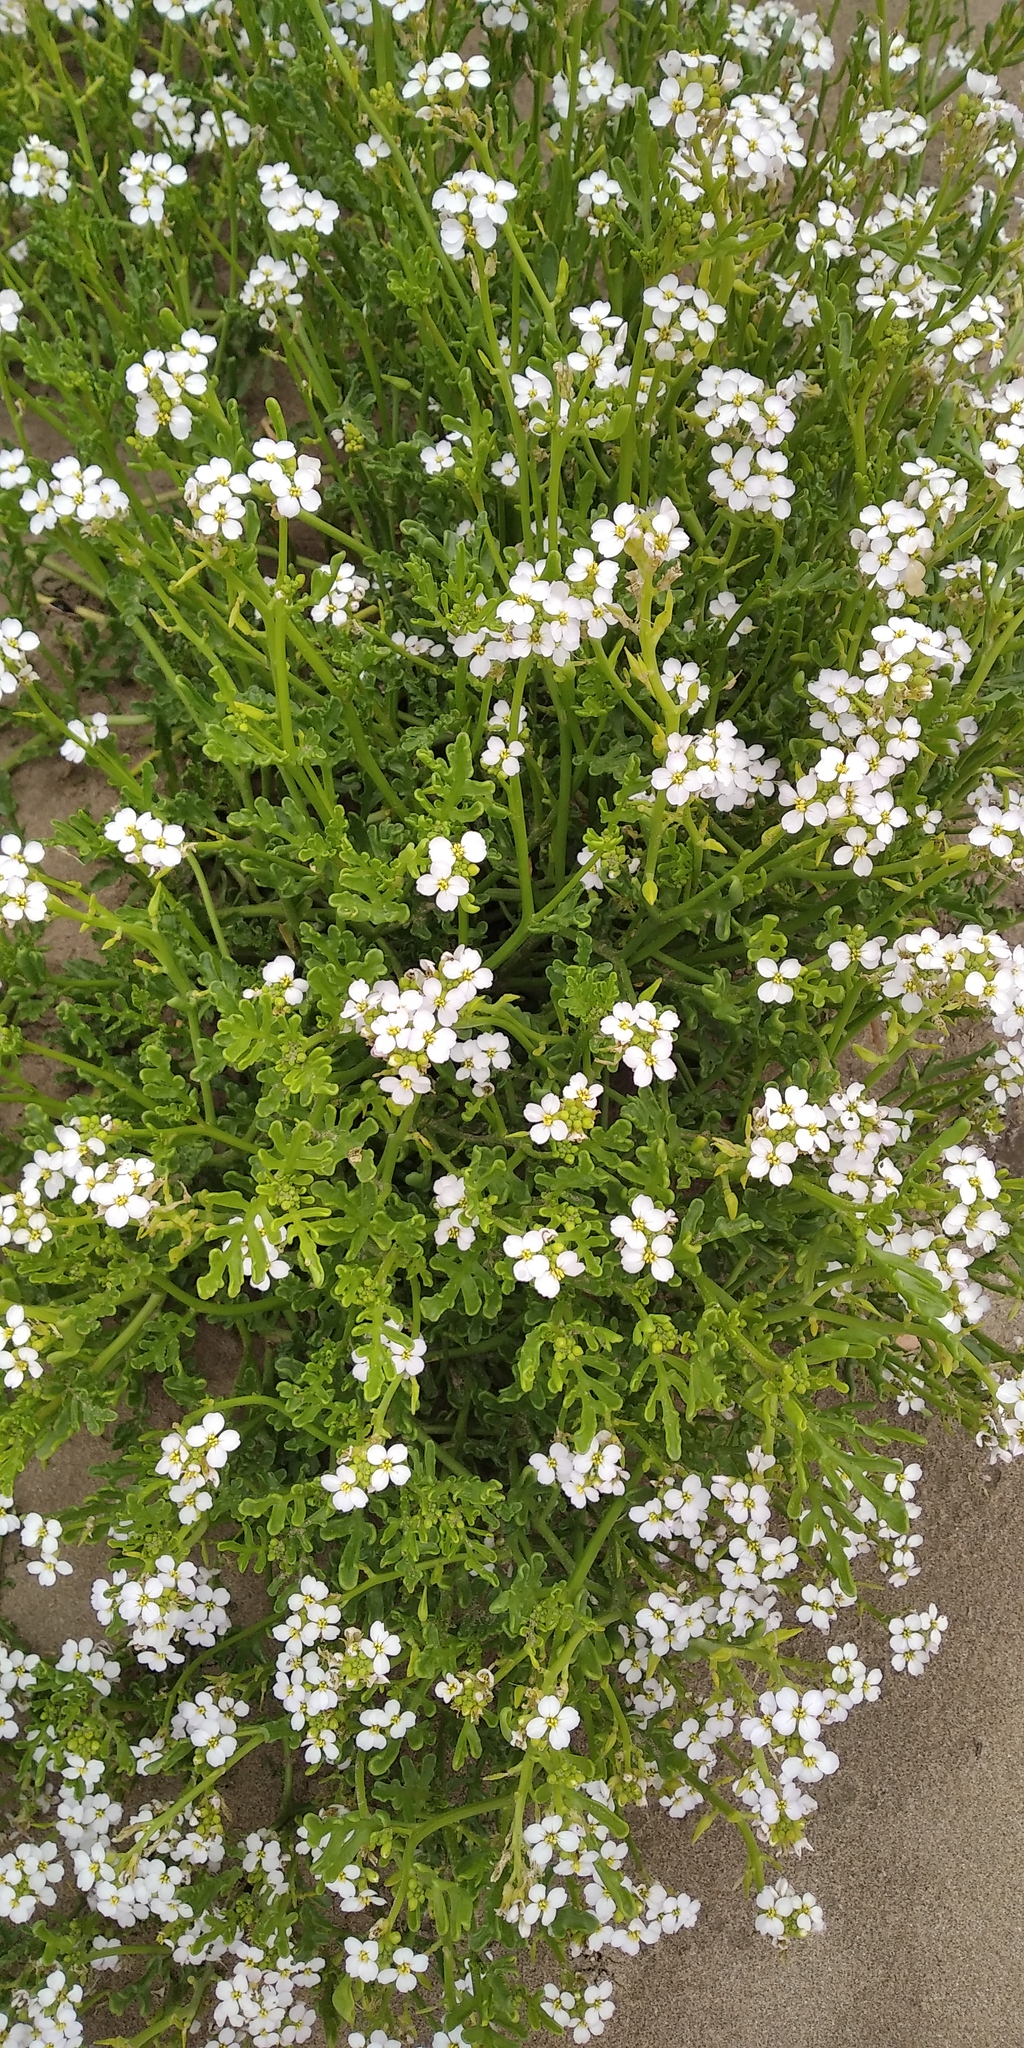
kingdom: Plantae
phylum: Tracheophyta
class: Magnoliopsida
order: Brassicales
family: Brassicaceae
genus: Cakile
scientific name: Cakile maritima
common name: Sea rocket
